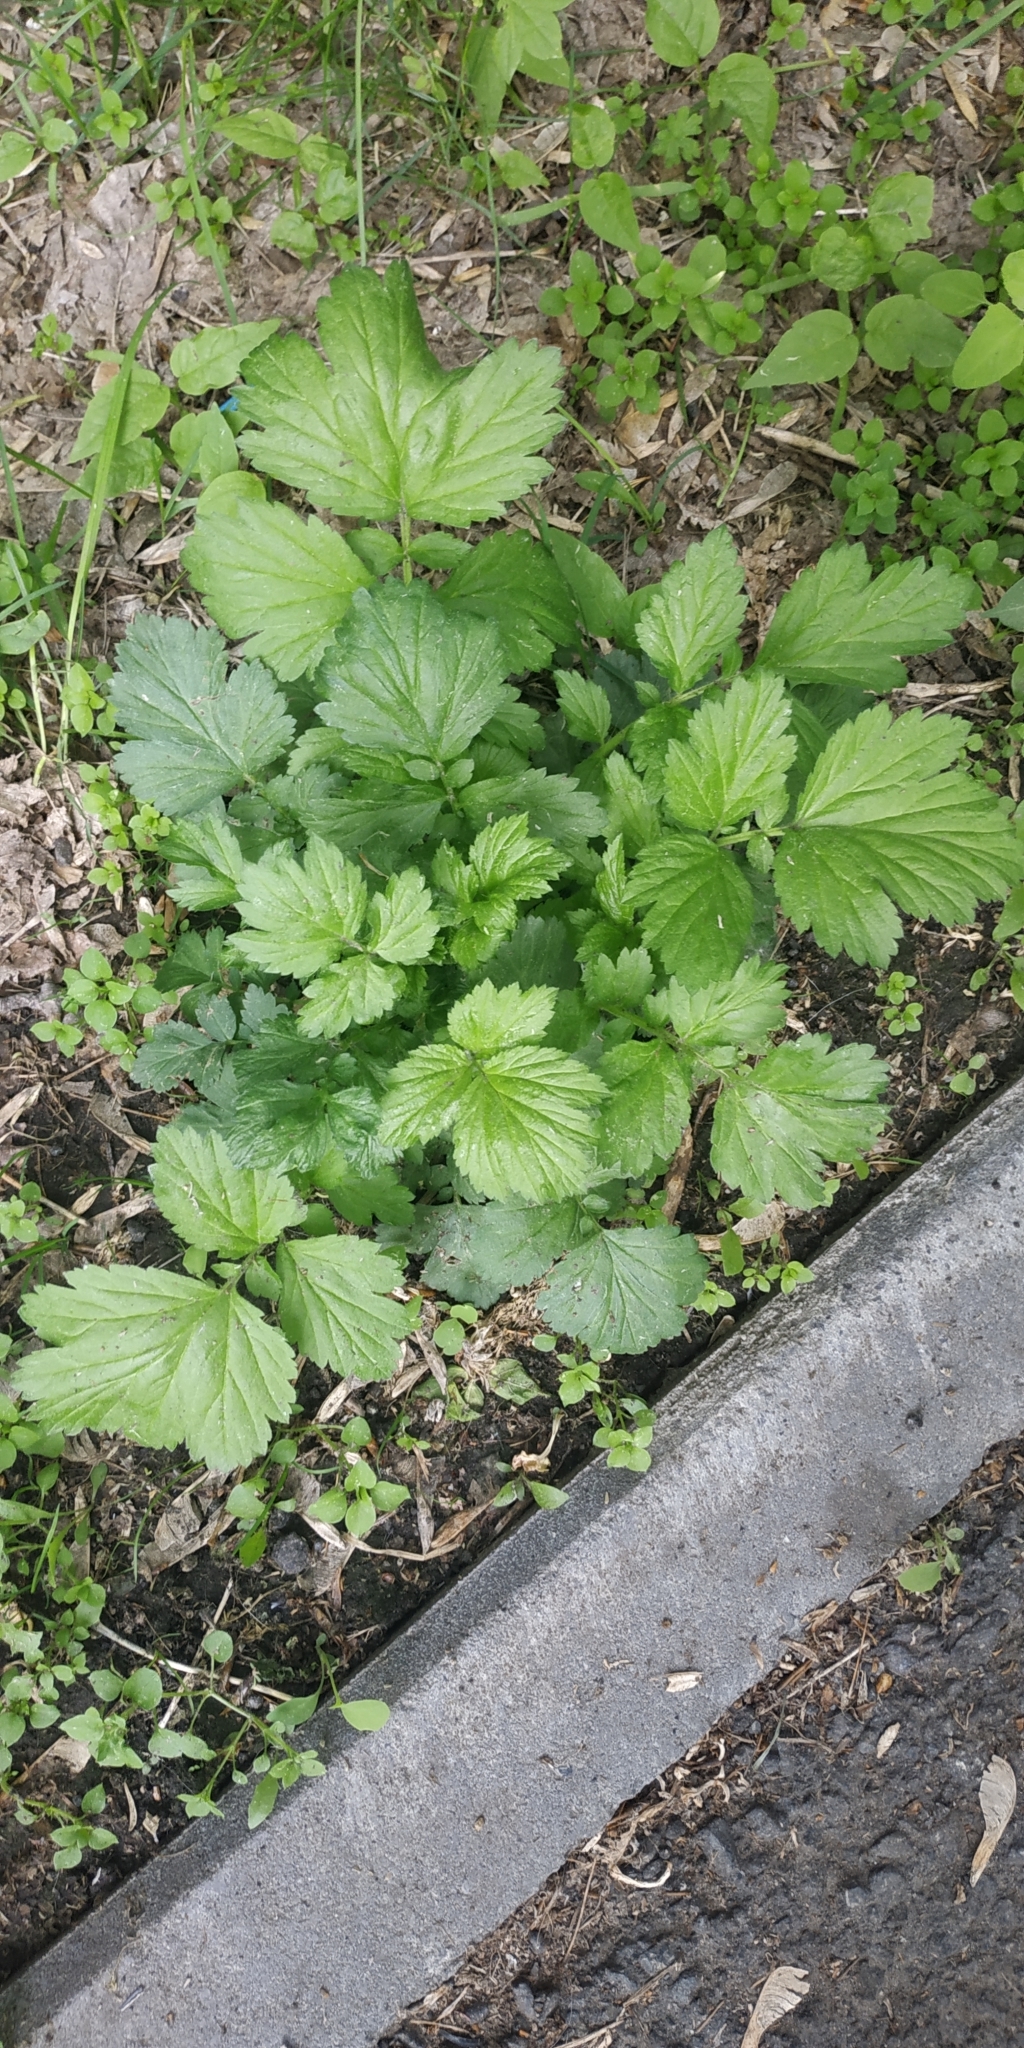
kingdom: Plantae
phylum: Tracheophyta
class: Magnoliopsida
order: Rosales
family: Rosaceae
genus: Geum
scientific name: Geum aleppicum
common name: Yellow avens
